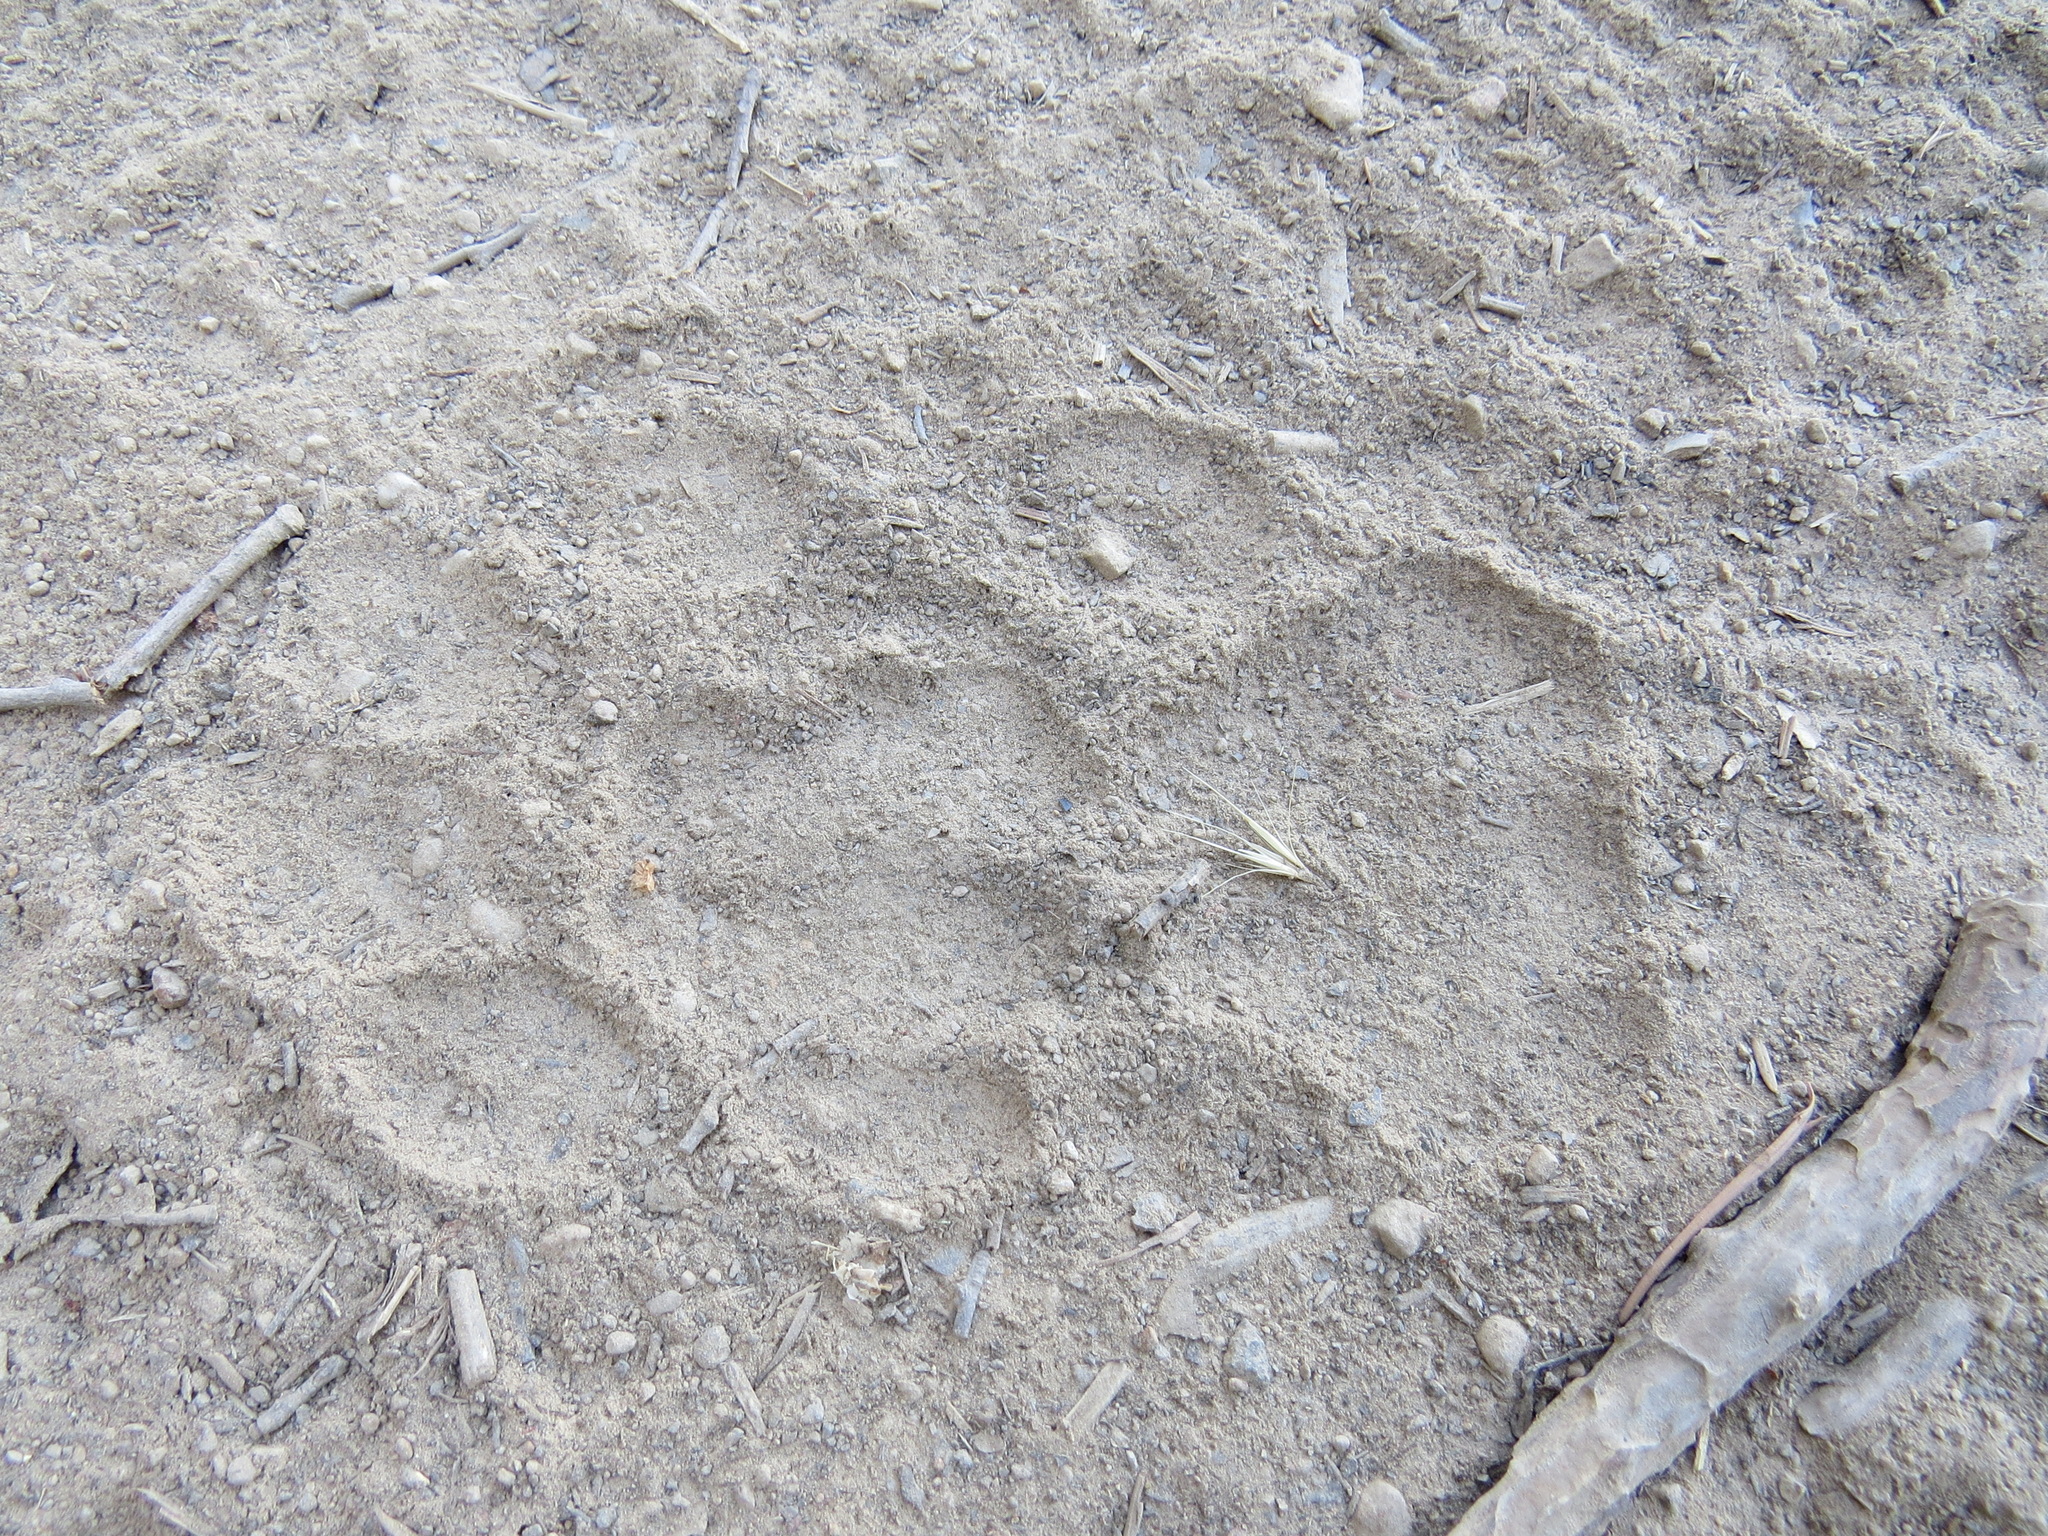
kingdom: Animalia
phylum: Chordata
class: Mammalia
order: Carnivora
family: Felidae
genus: Puma
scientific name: Puma concolor
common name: Puma
